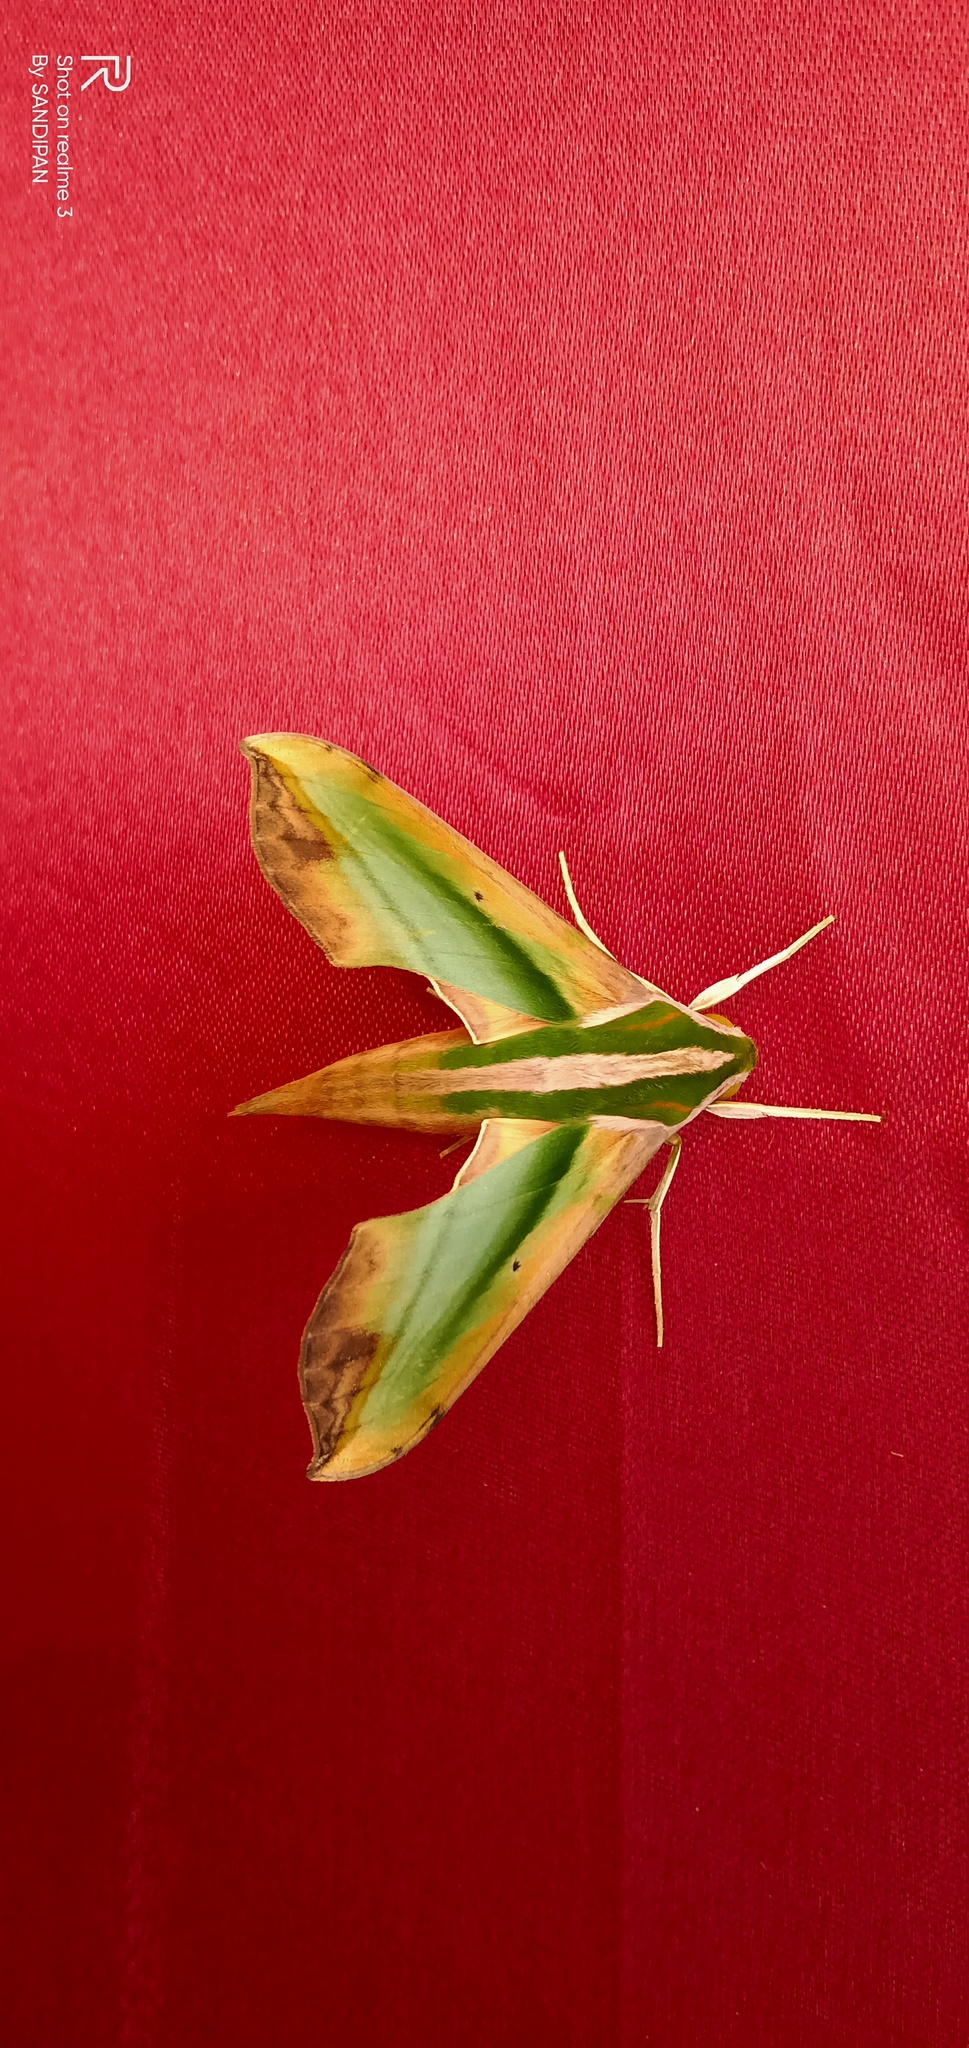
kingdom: Animalia
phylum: Arthropoda
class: Insecta
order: Lepidoptera
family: Sphingidae
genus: Pergesa
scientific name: Pergesa acteus
